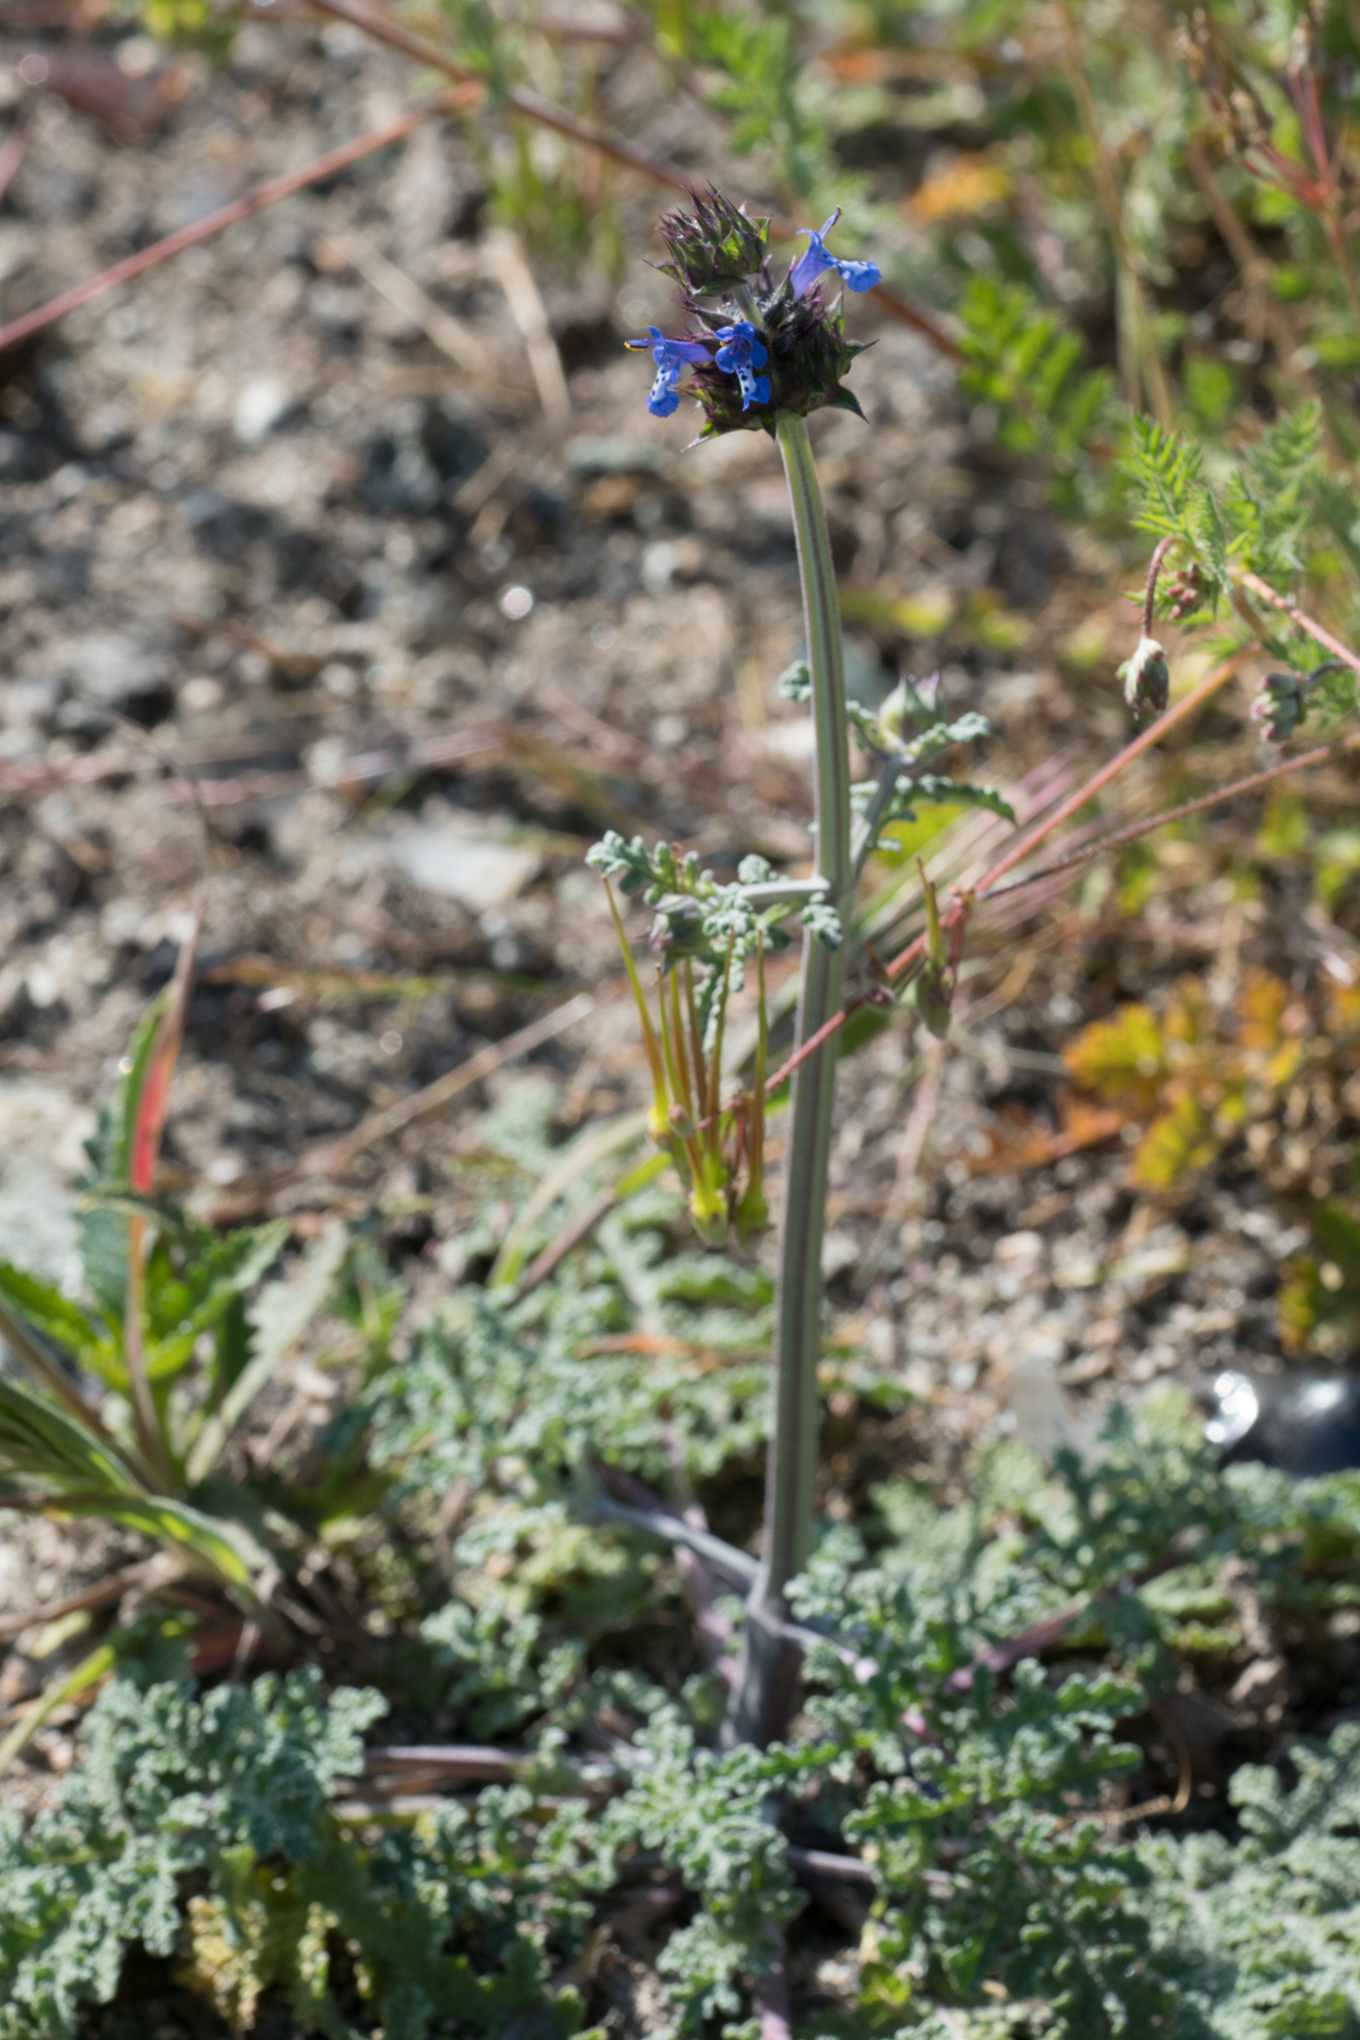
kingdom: Plantae
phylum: Tracheophyta
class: Magnoliopsida
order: Lamiales
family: Lamiaceae
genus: Salvia
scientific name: Salvia columbariae
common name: Chia
